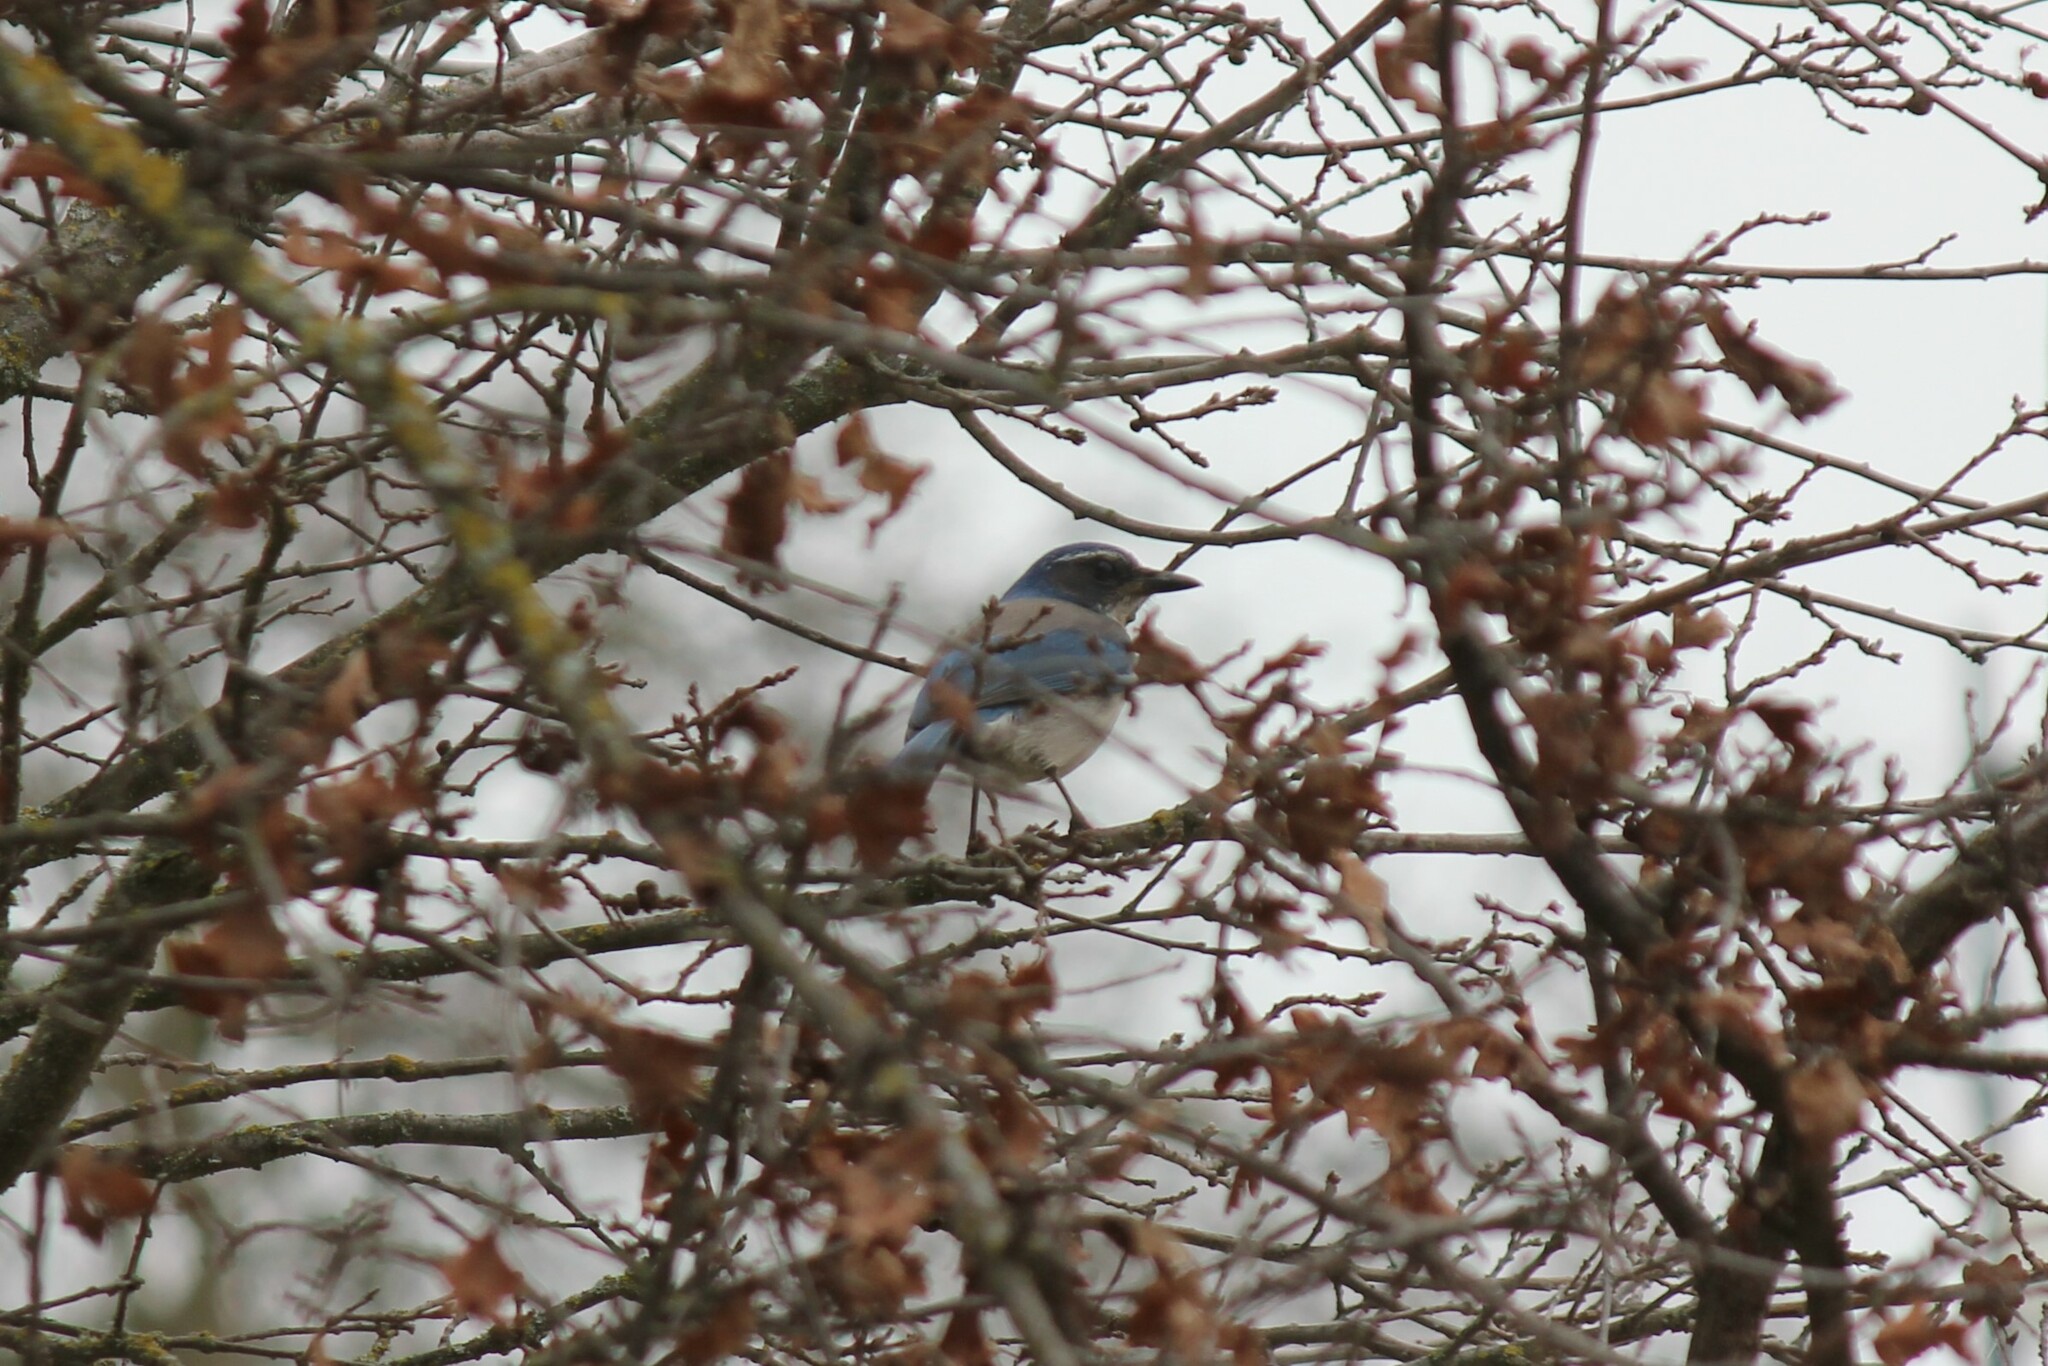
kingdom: Animalia
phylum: Chordata
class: Aves
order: Passeriformes
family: Corvidae
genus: Aphelocoma
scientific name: Aphelocoma californica
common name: California scrub-jay
